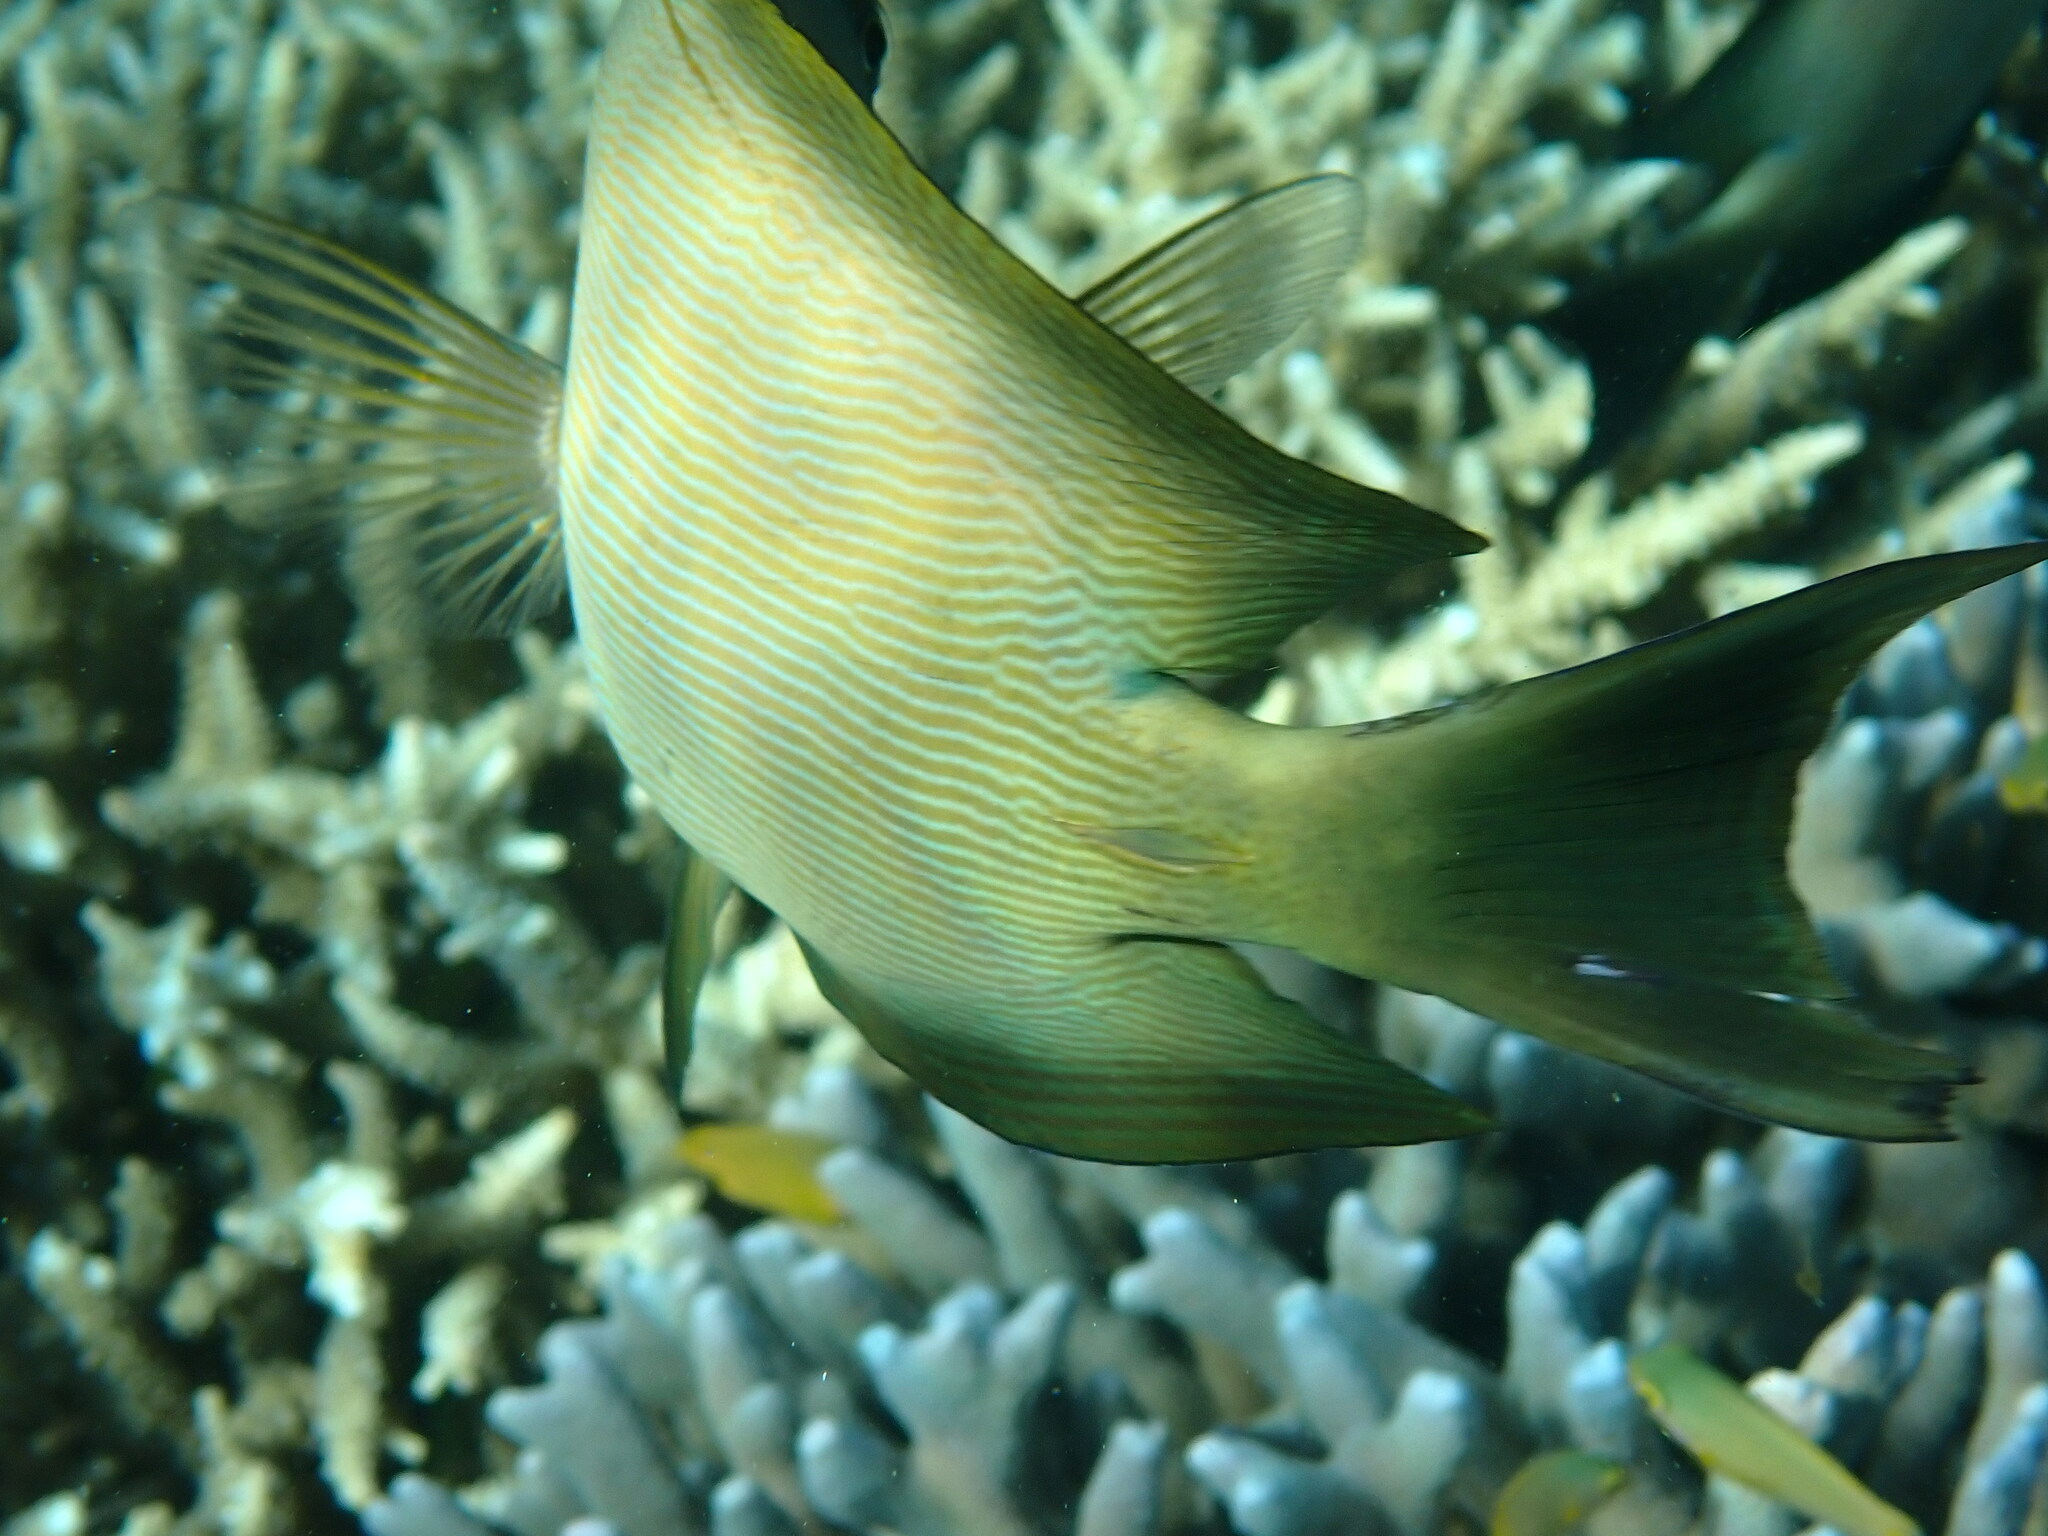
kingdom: Animalia
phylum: Chordata
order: Perciformes
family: Acanthuridae
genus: Ctenochaetus
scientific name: Ctenochaetus striatus
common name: Bristle-toothed surgeonfish
